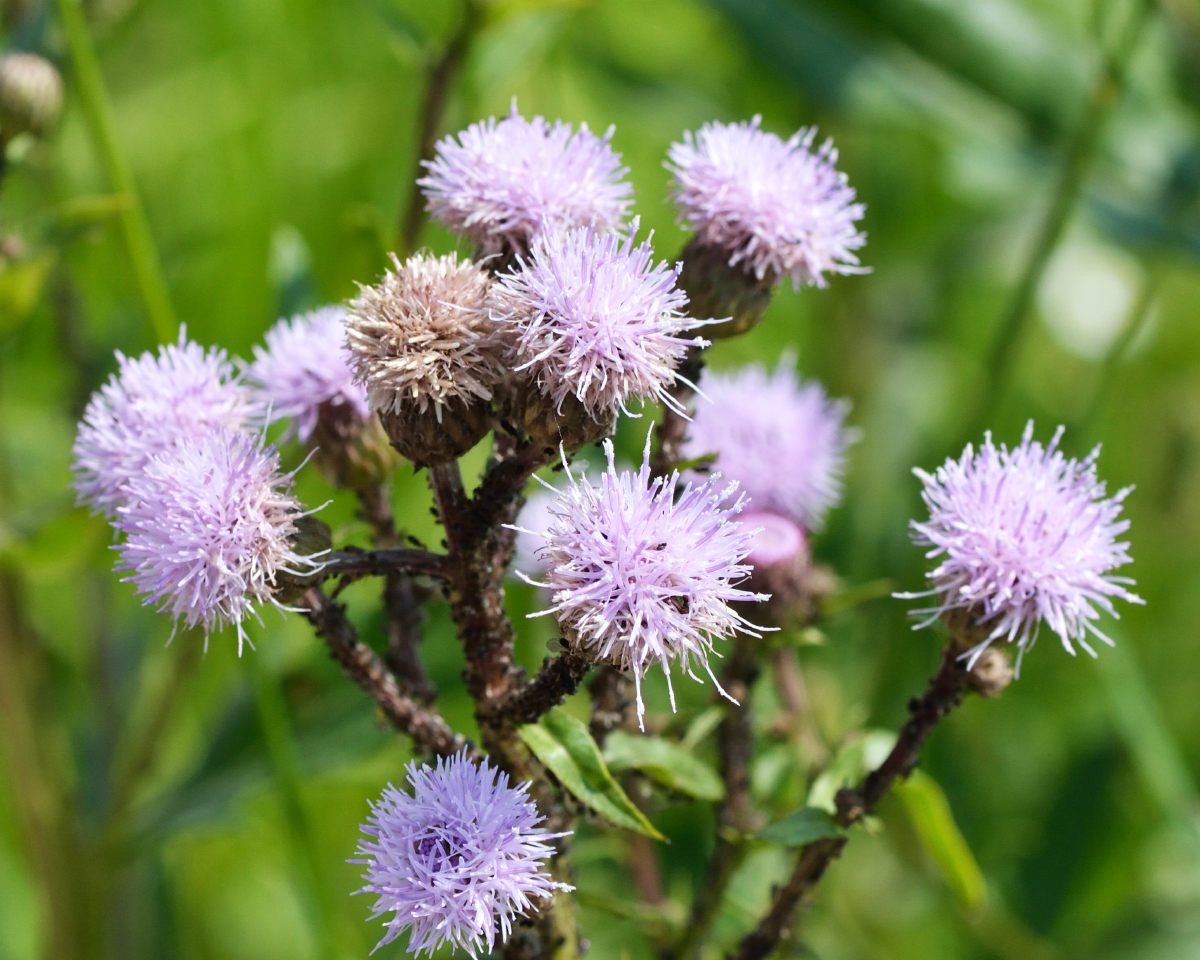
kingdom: Plantae
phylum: Tracheophyta
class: Magnoliopsida
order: Asterales
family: Asteraceae
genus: Cirsium
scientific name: Cirsium arvense
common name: Creeping thistle
